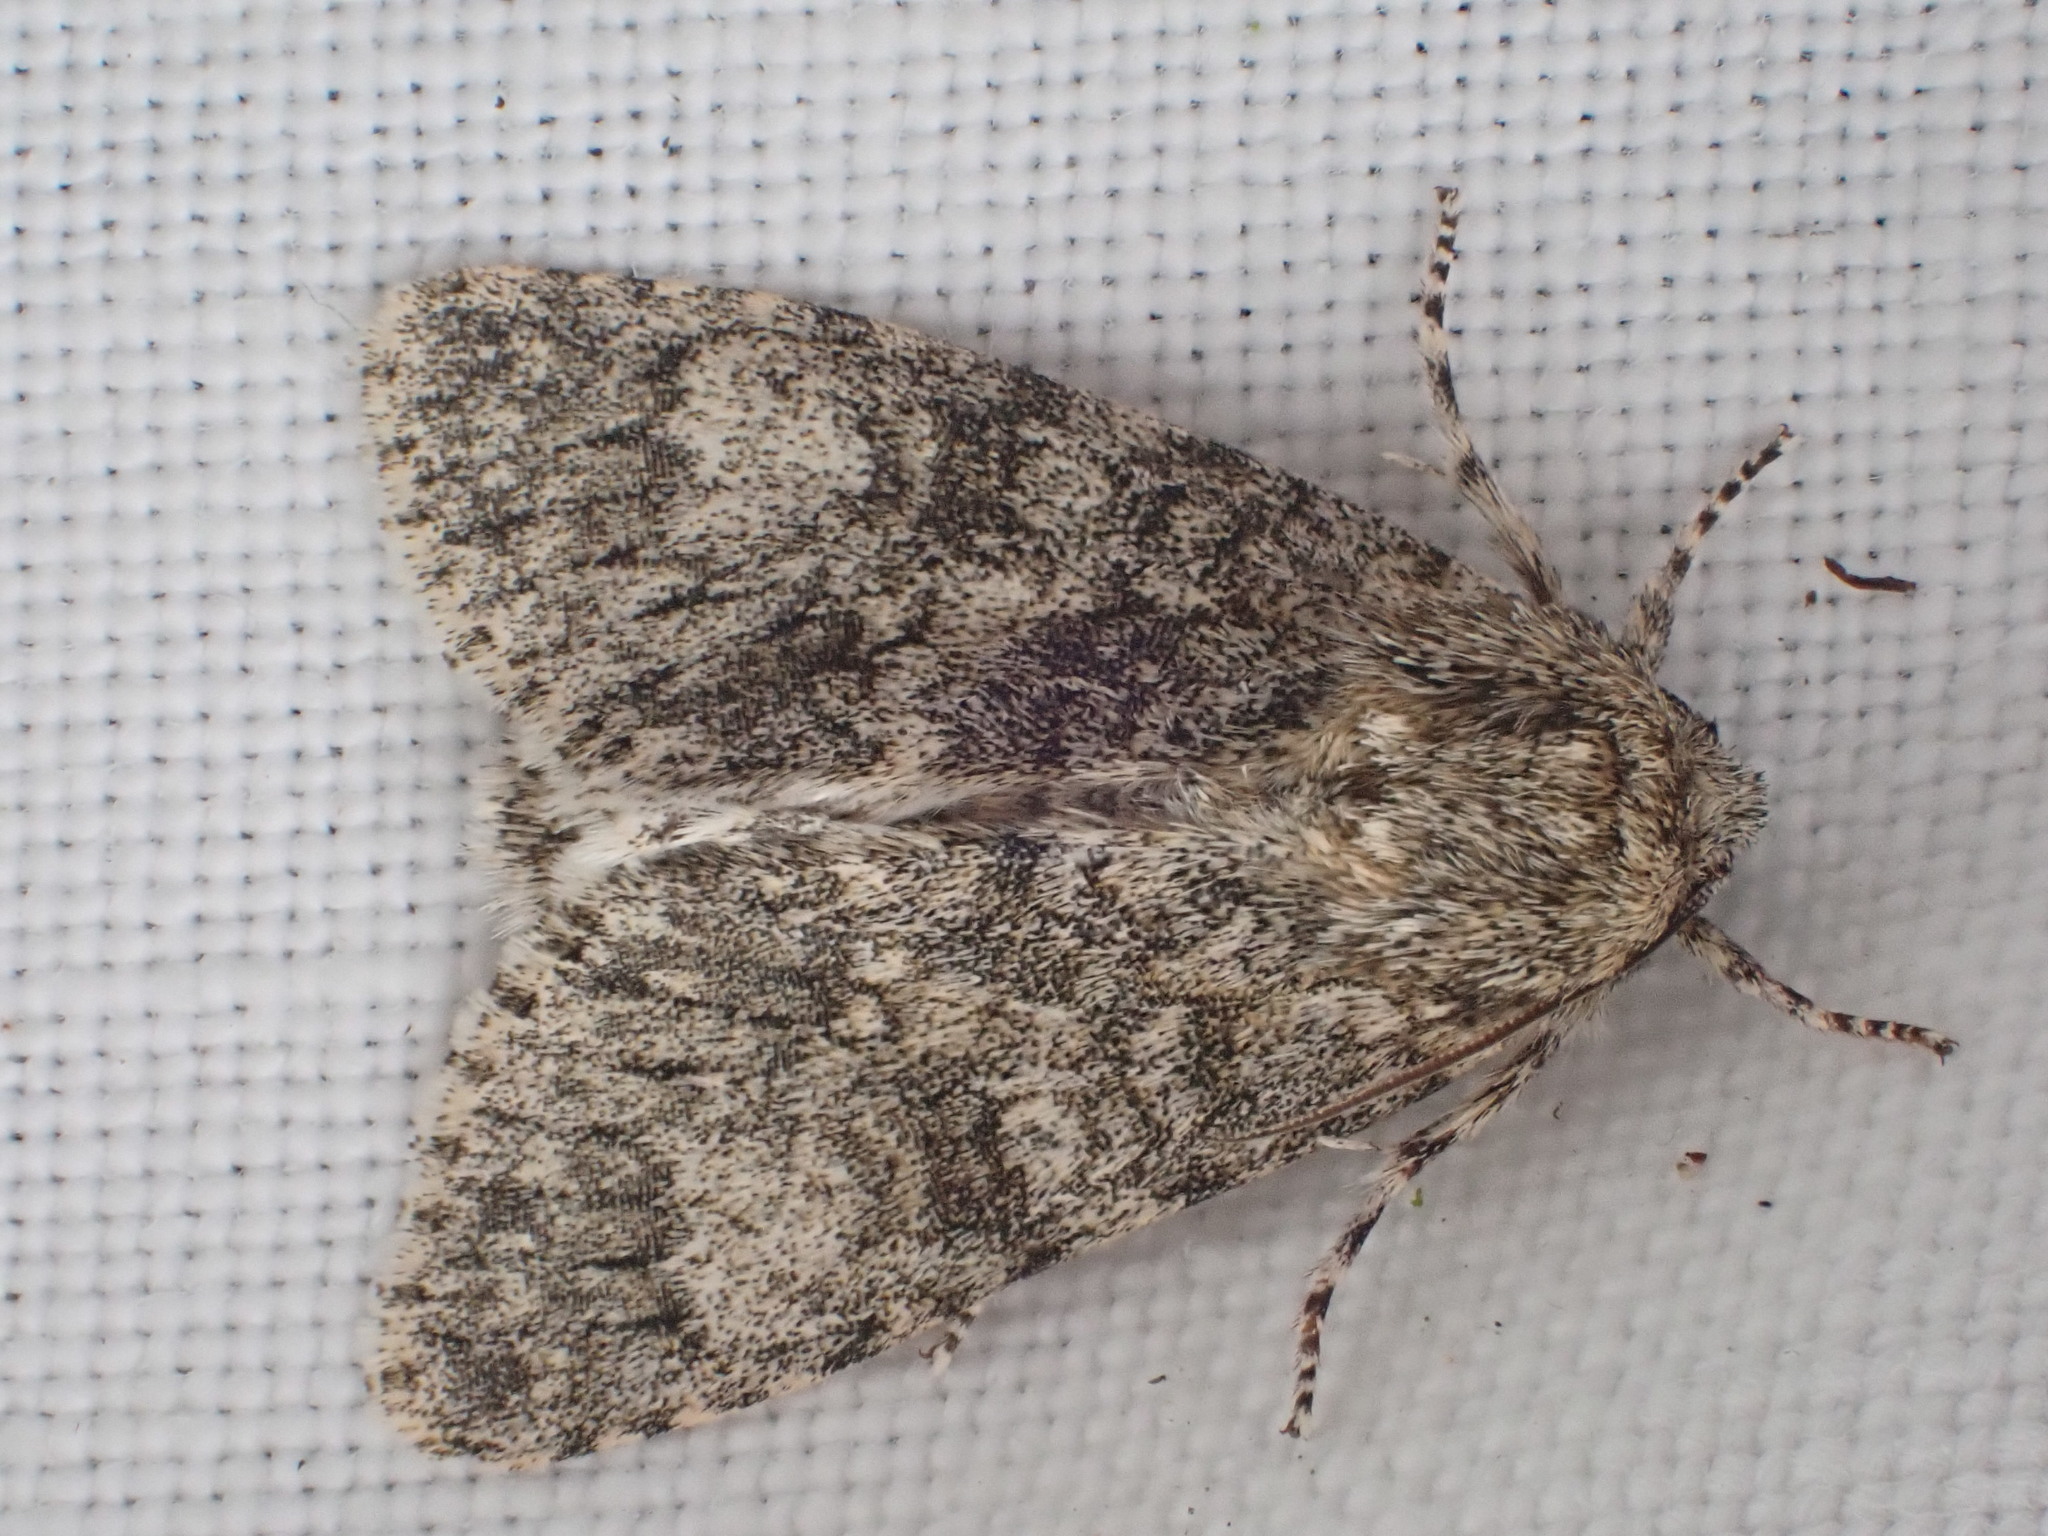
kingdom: Animalia
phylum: Arthropoda
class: Insecta
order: Lepidoptera
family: Noctuidae
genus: Acronicta
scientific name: Acronicta megacephala
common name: Poplar grey
